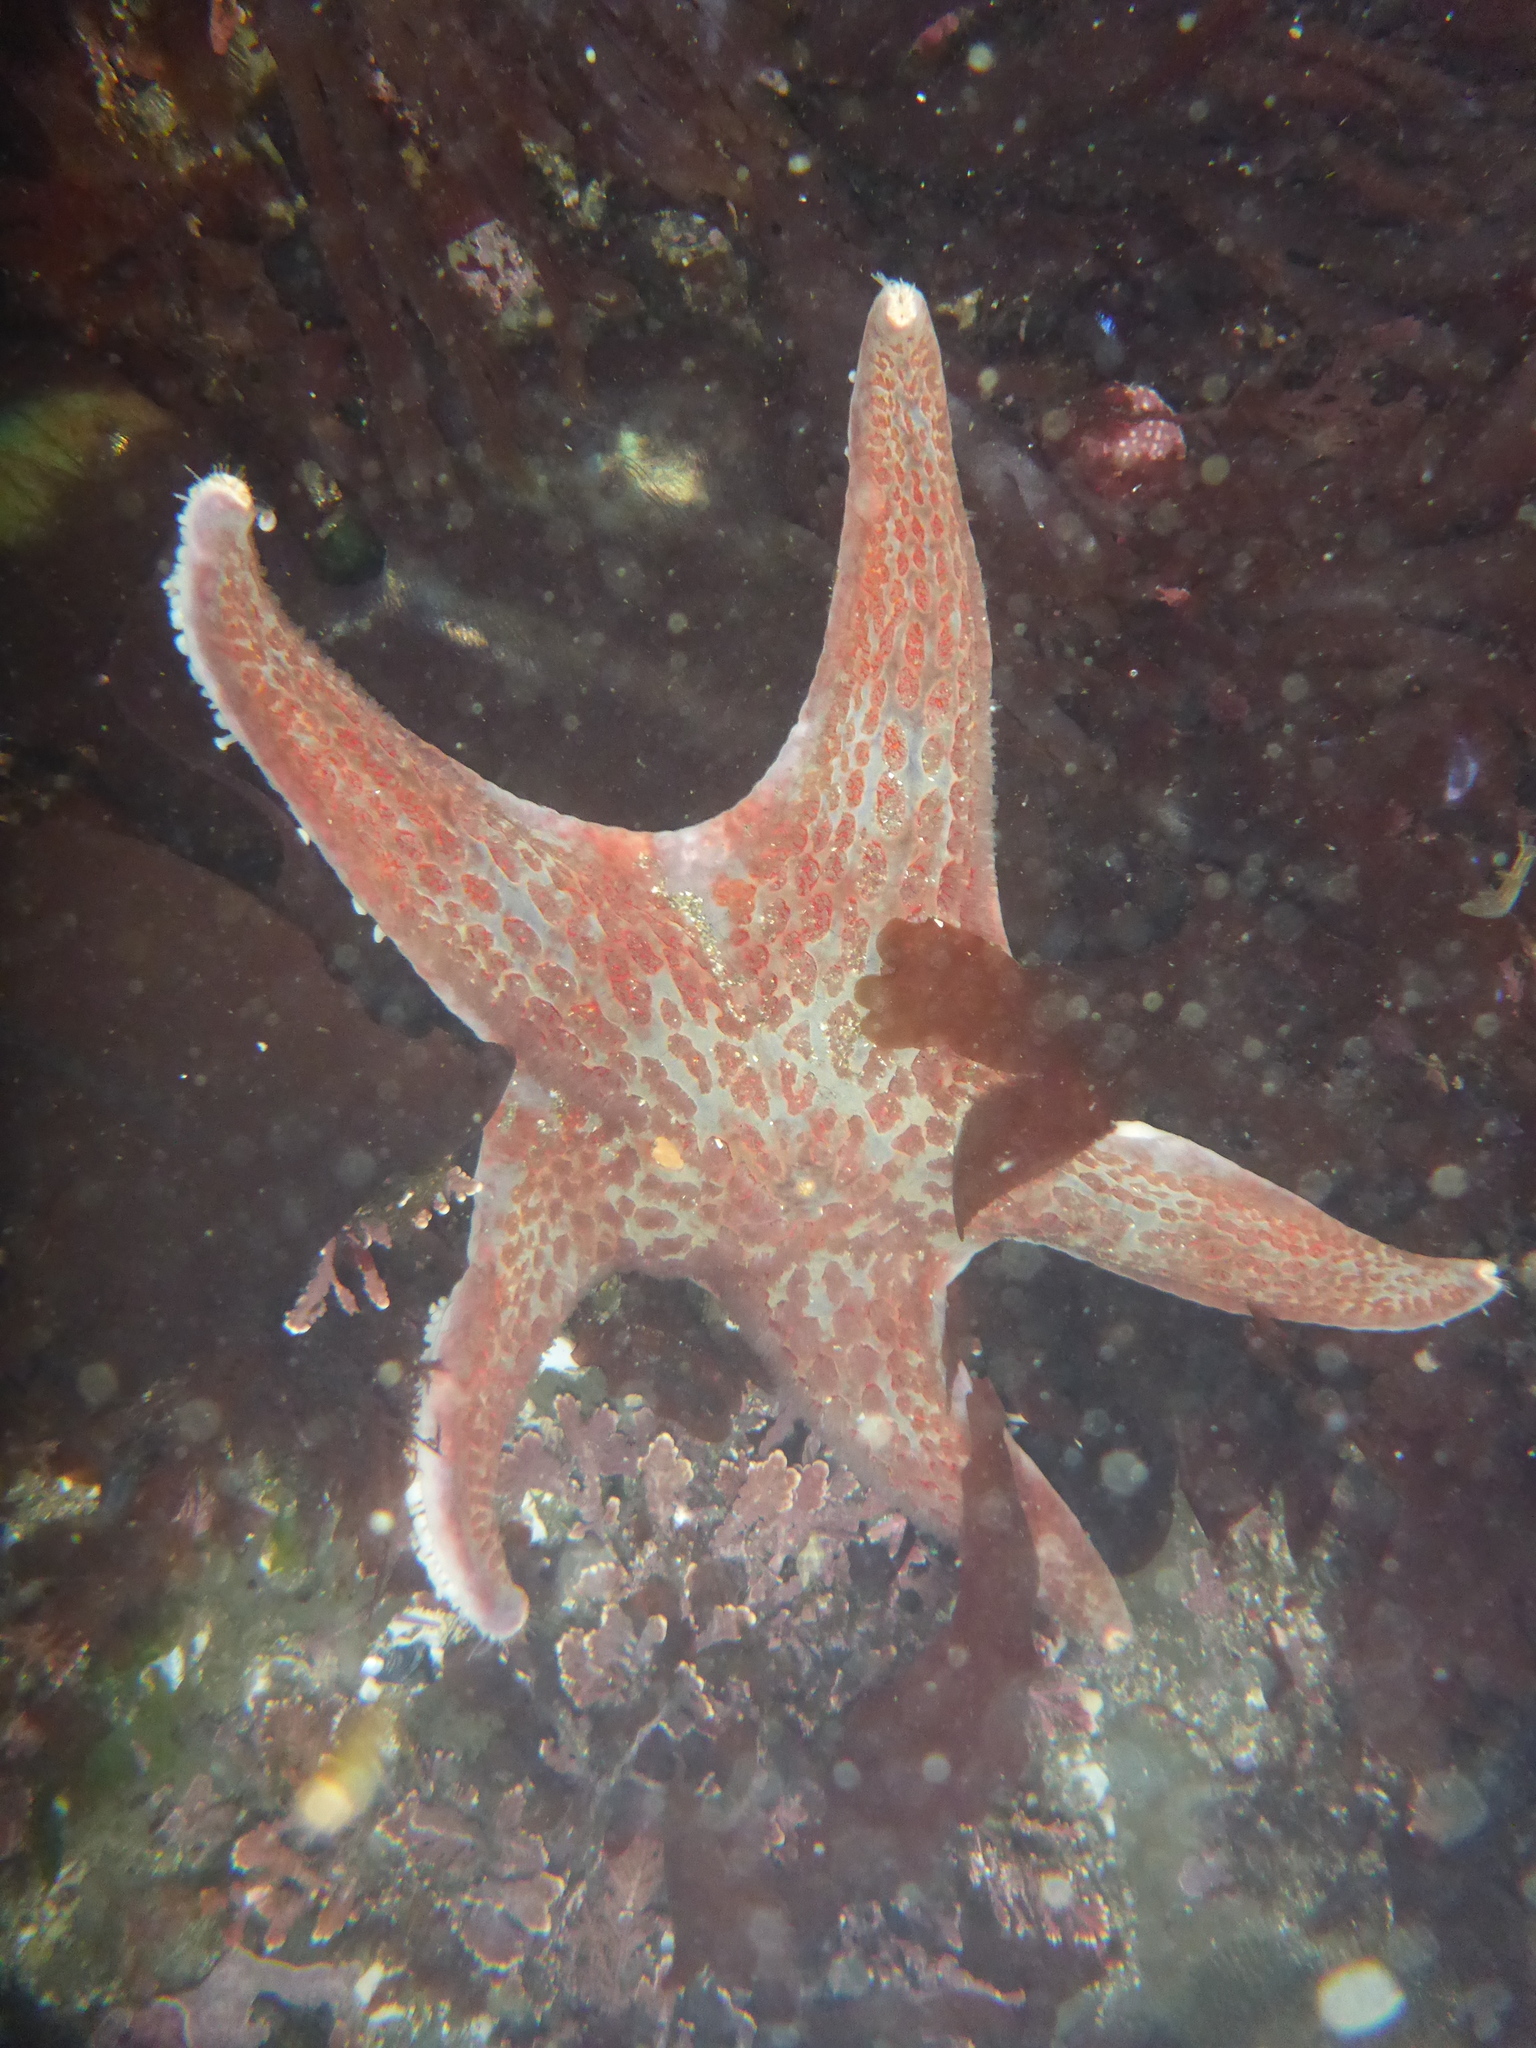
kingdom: Animalia
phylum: Echinodermata
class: Asteroidea
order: Valvatida
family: Asteropseidae
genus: Dermasterias
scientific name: Dermasterias imbricata
